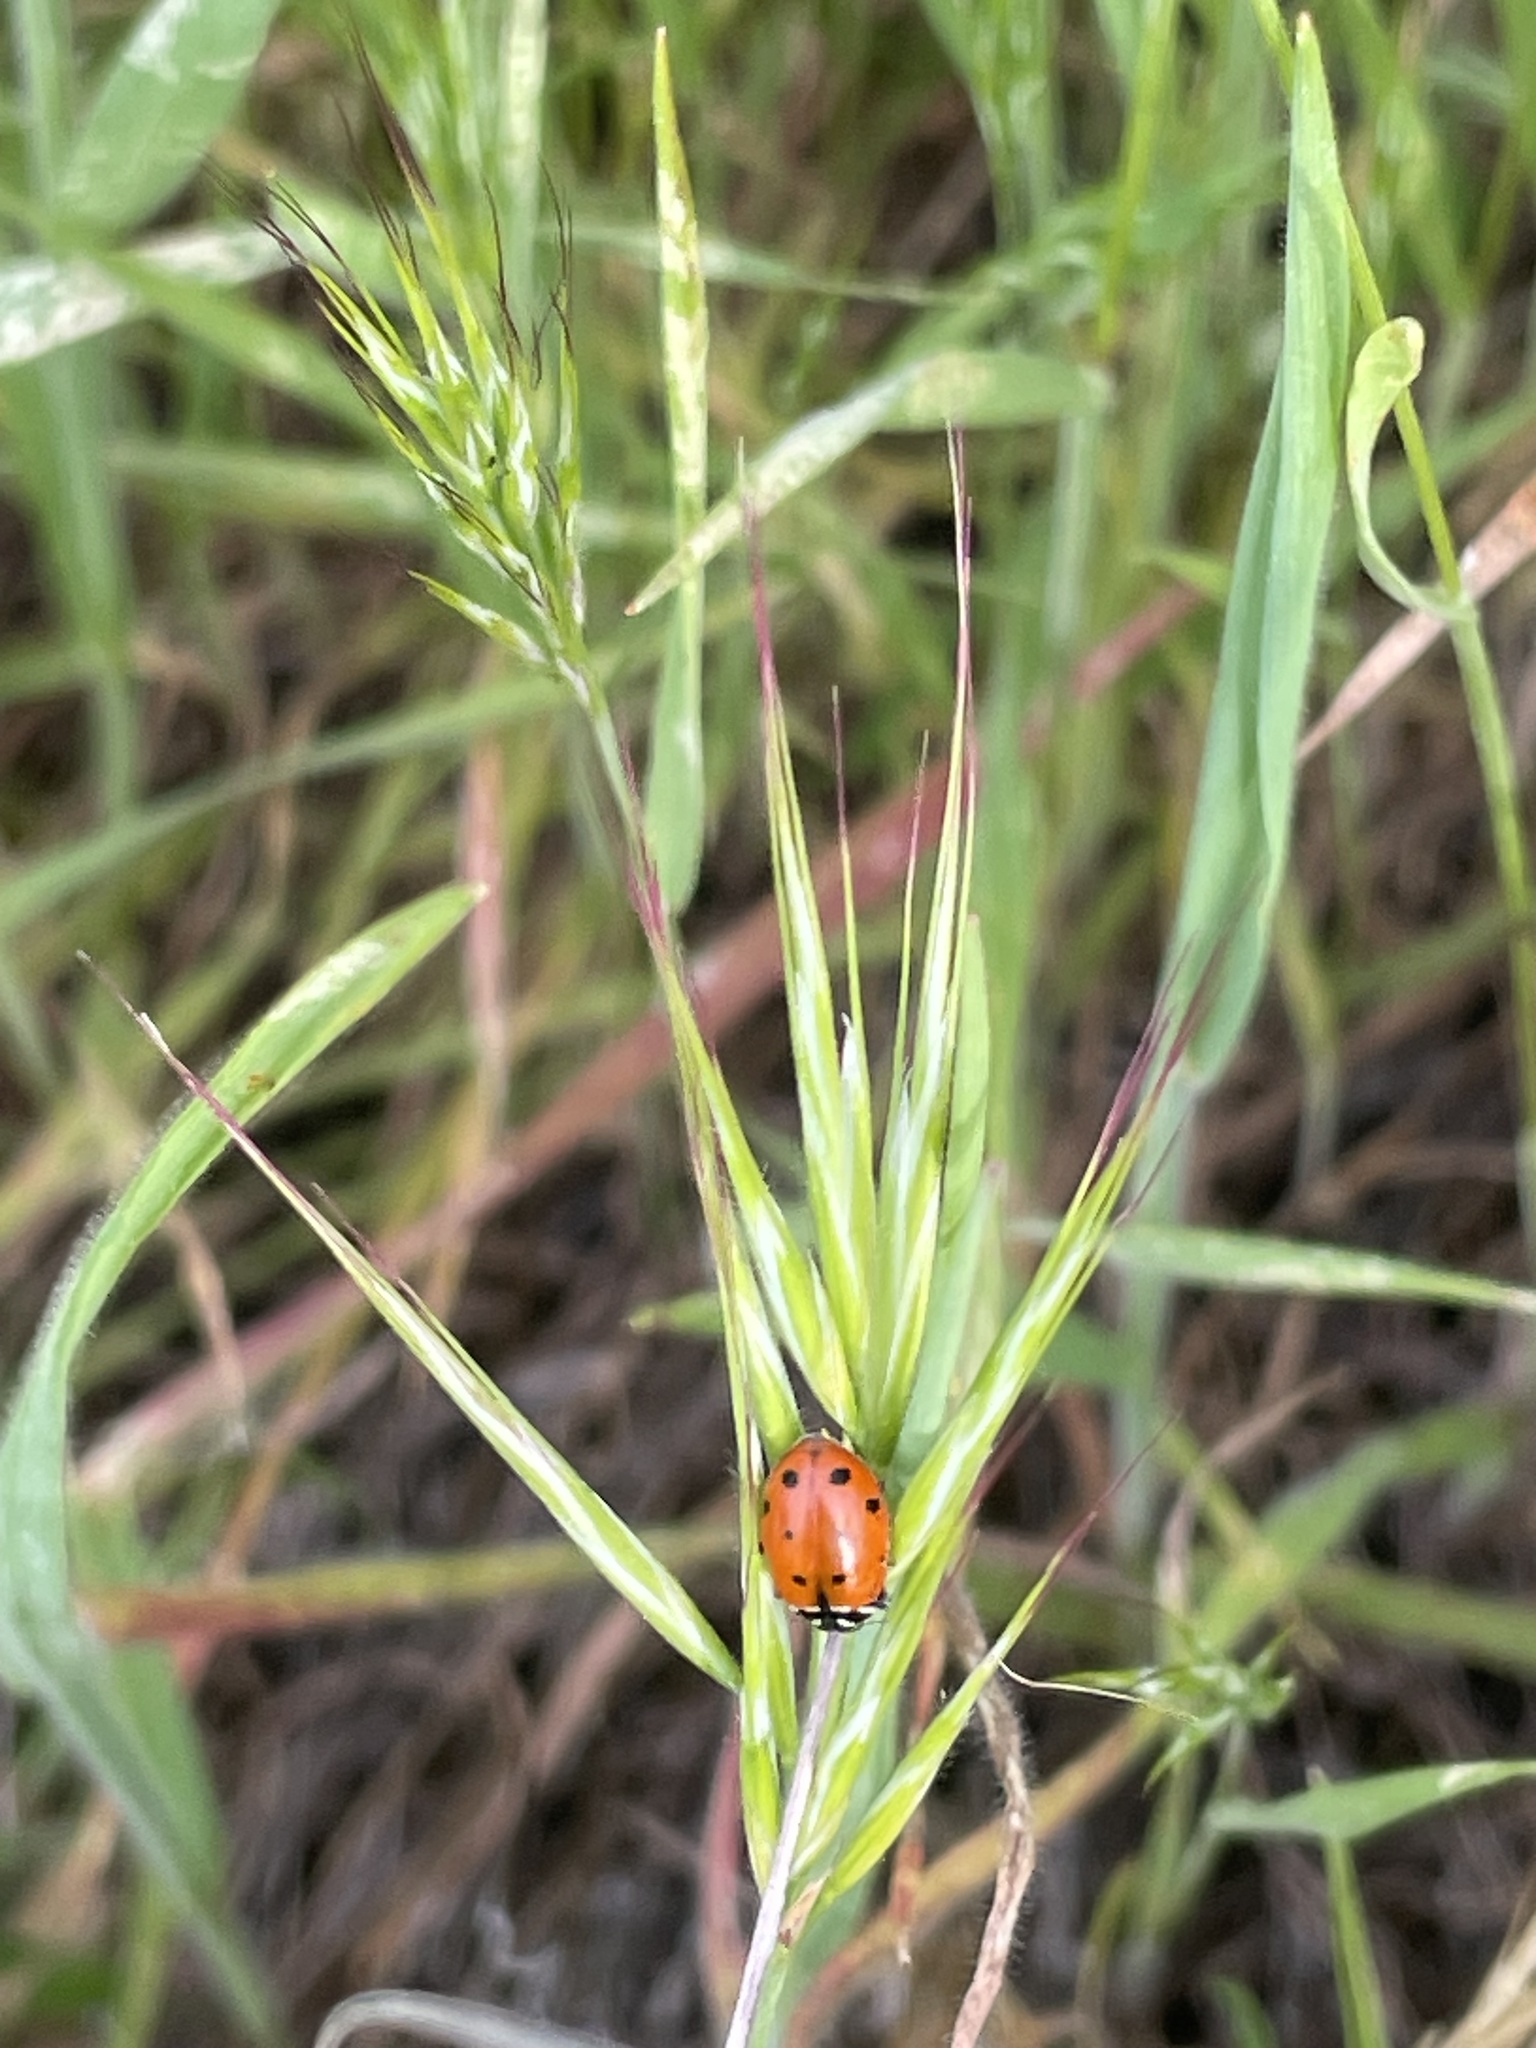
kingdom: Animalia
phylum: Arthropoda
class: Insecta
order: Coleoptera
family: Coccinellidae
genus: Hippodamia
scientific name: Hippodamia convergens
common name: Convergent lady beetle
